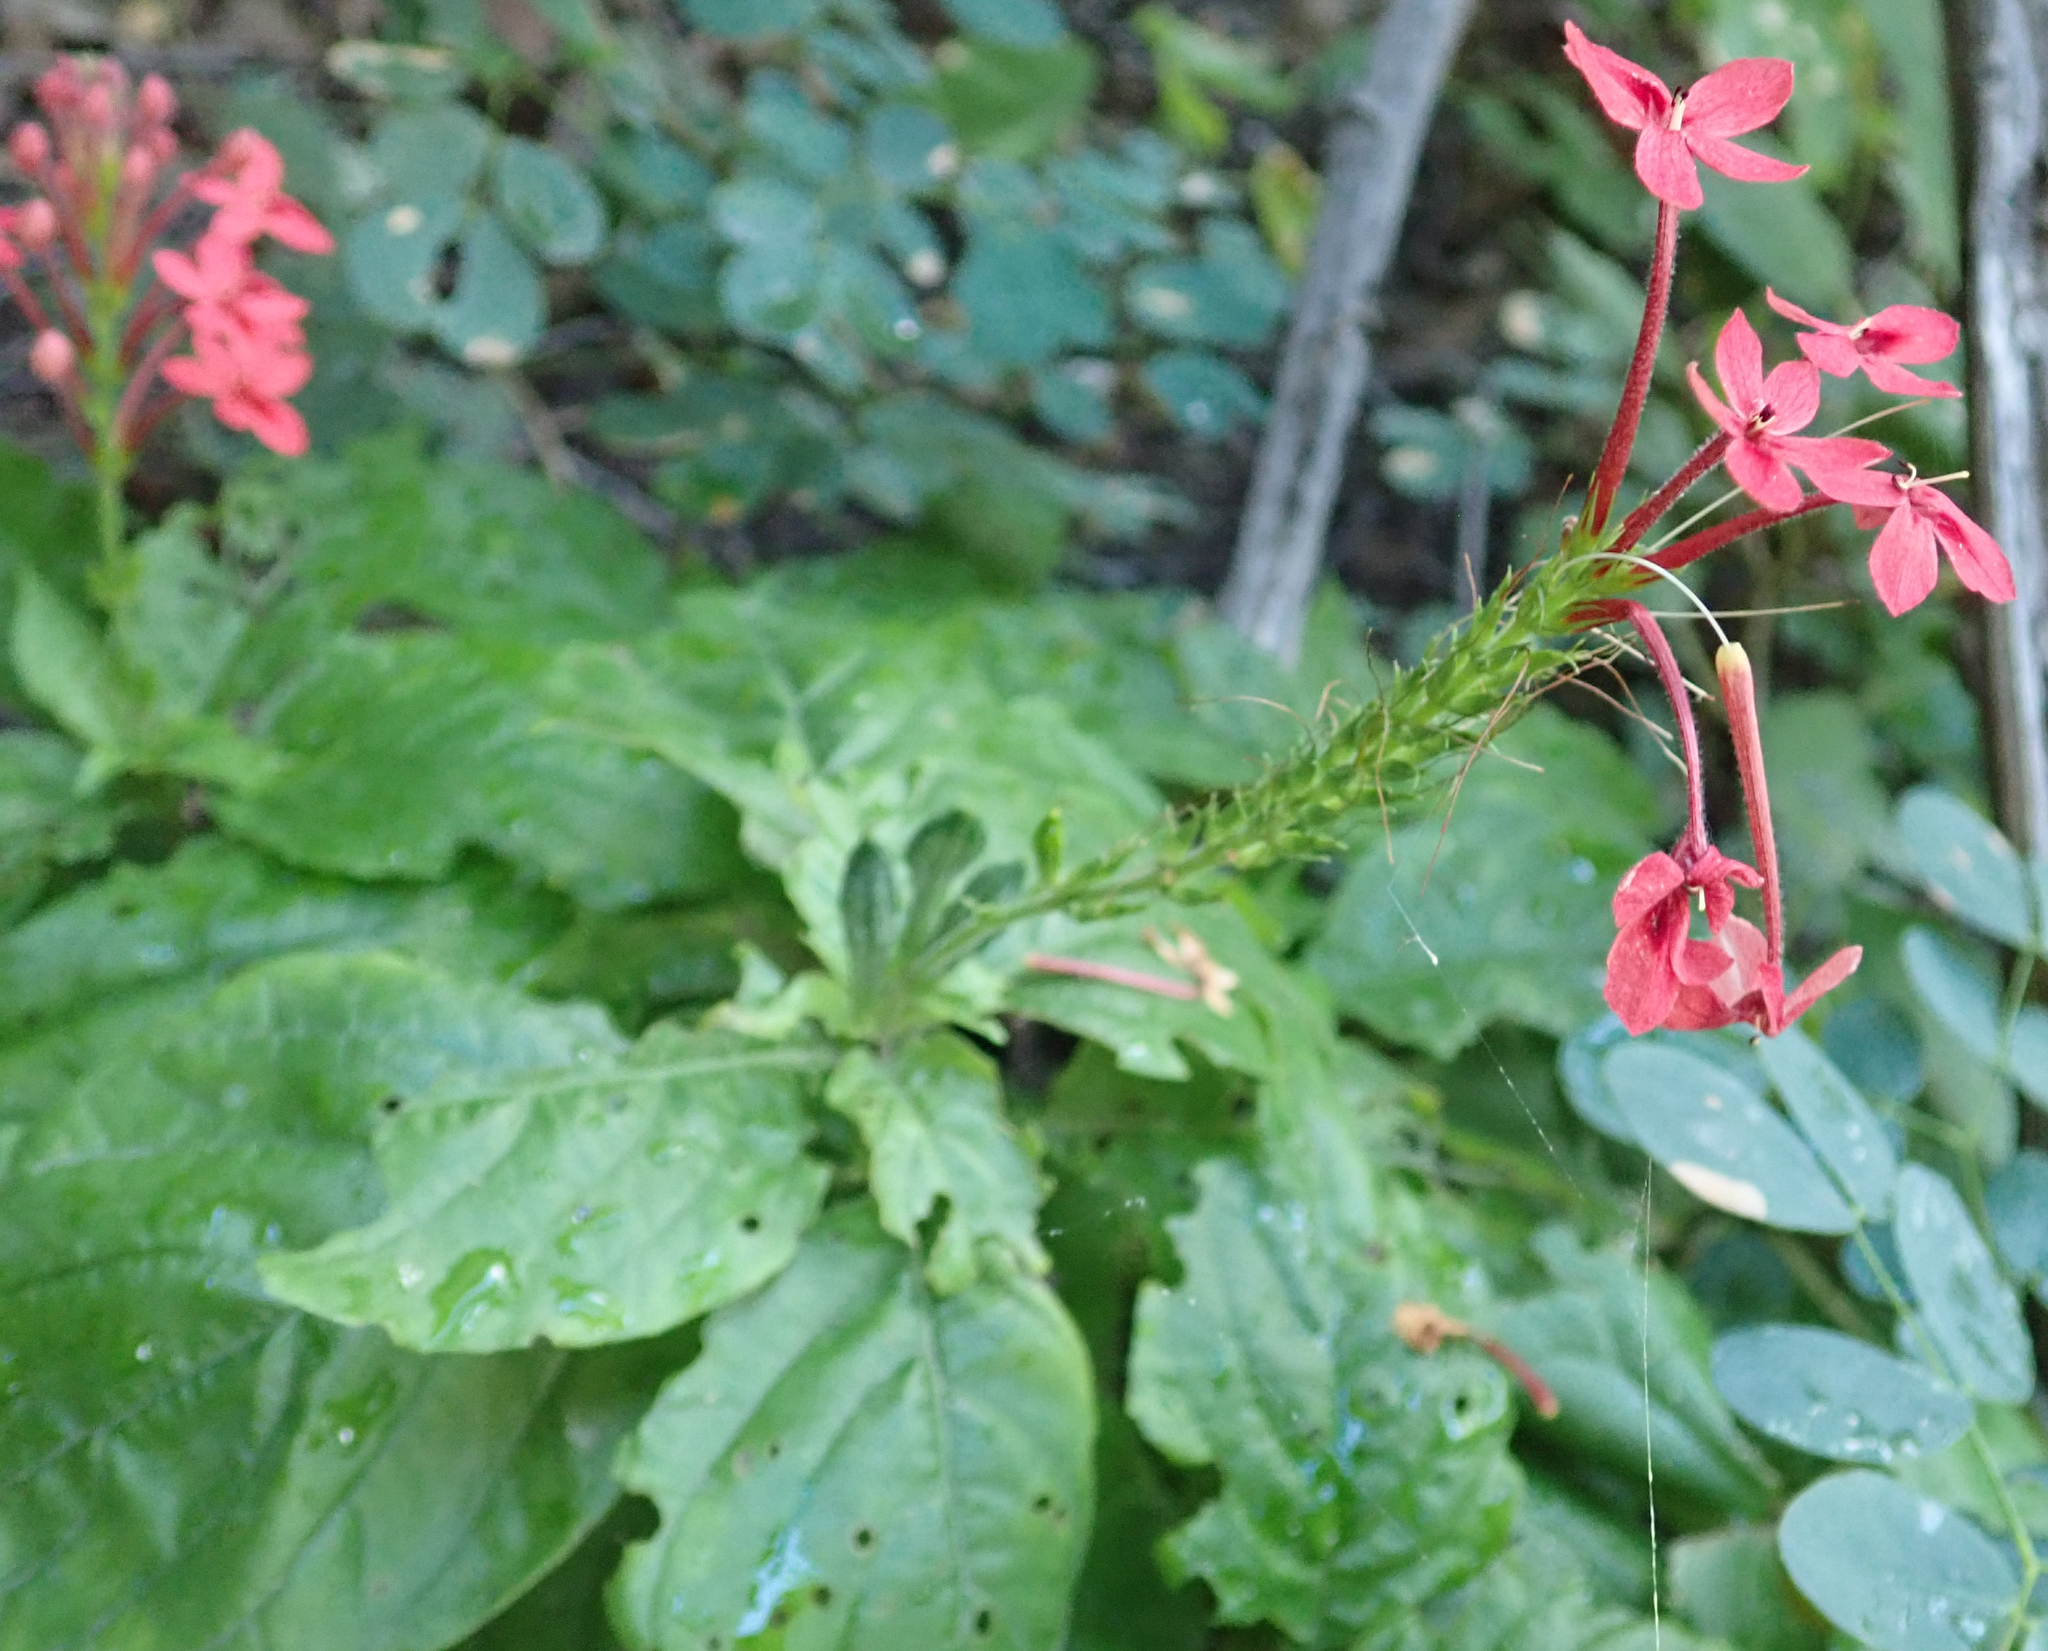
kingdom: Plantae
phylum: Tracheophyta
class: Magnoliopsida
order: Lamiales
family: Acanthaceae
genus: Ruspolia
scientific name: Ruspolia seticalyx
